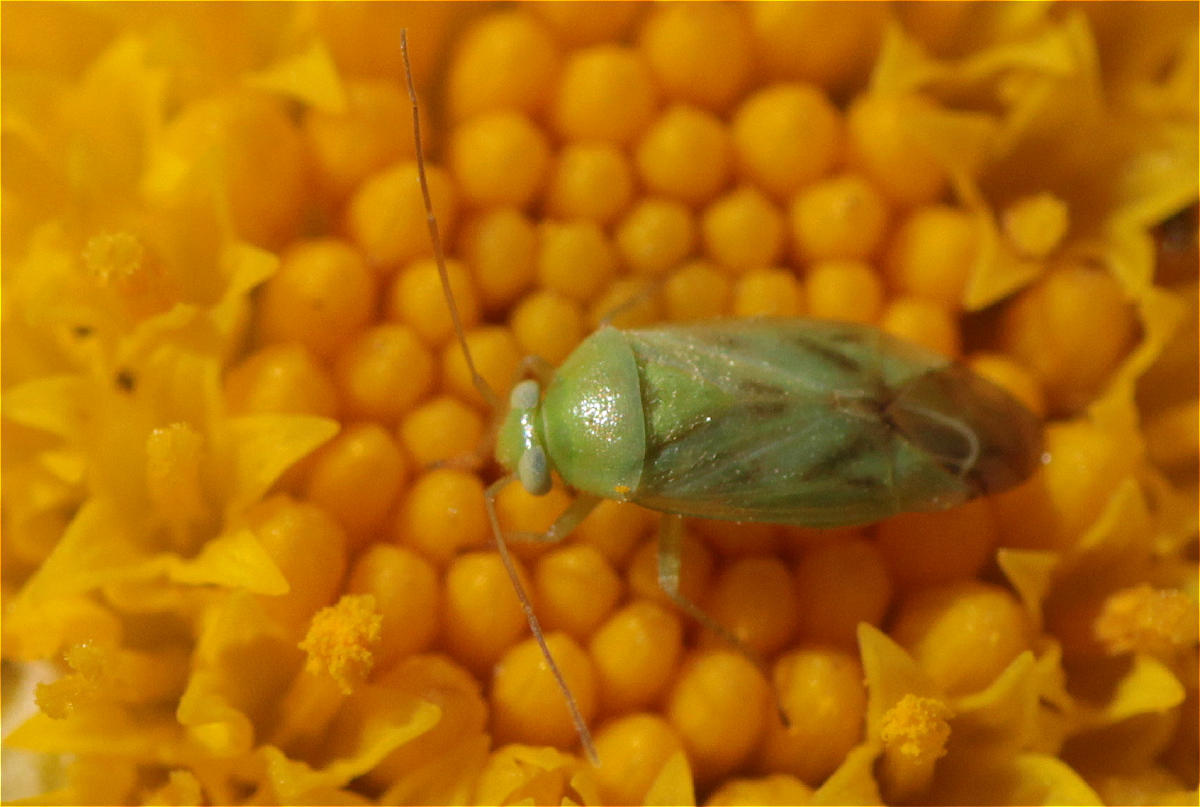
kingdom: Animalia
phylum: Arthropoda
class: Insecta
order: Hemiptera
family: Miridae
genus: Taylorilygus
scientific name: Taylorilygus apicalis
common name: Plant bug
